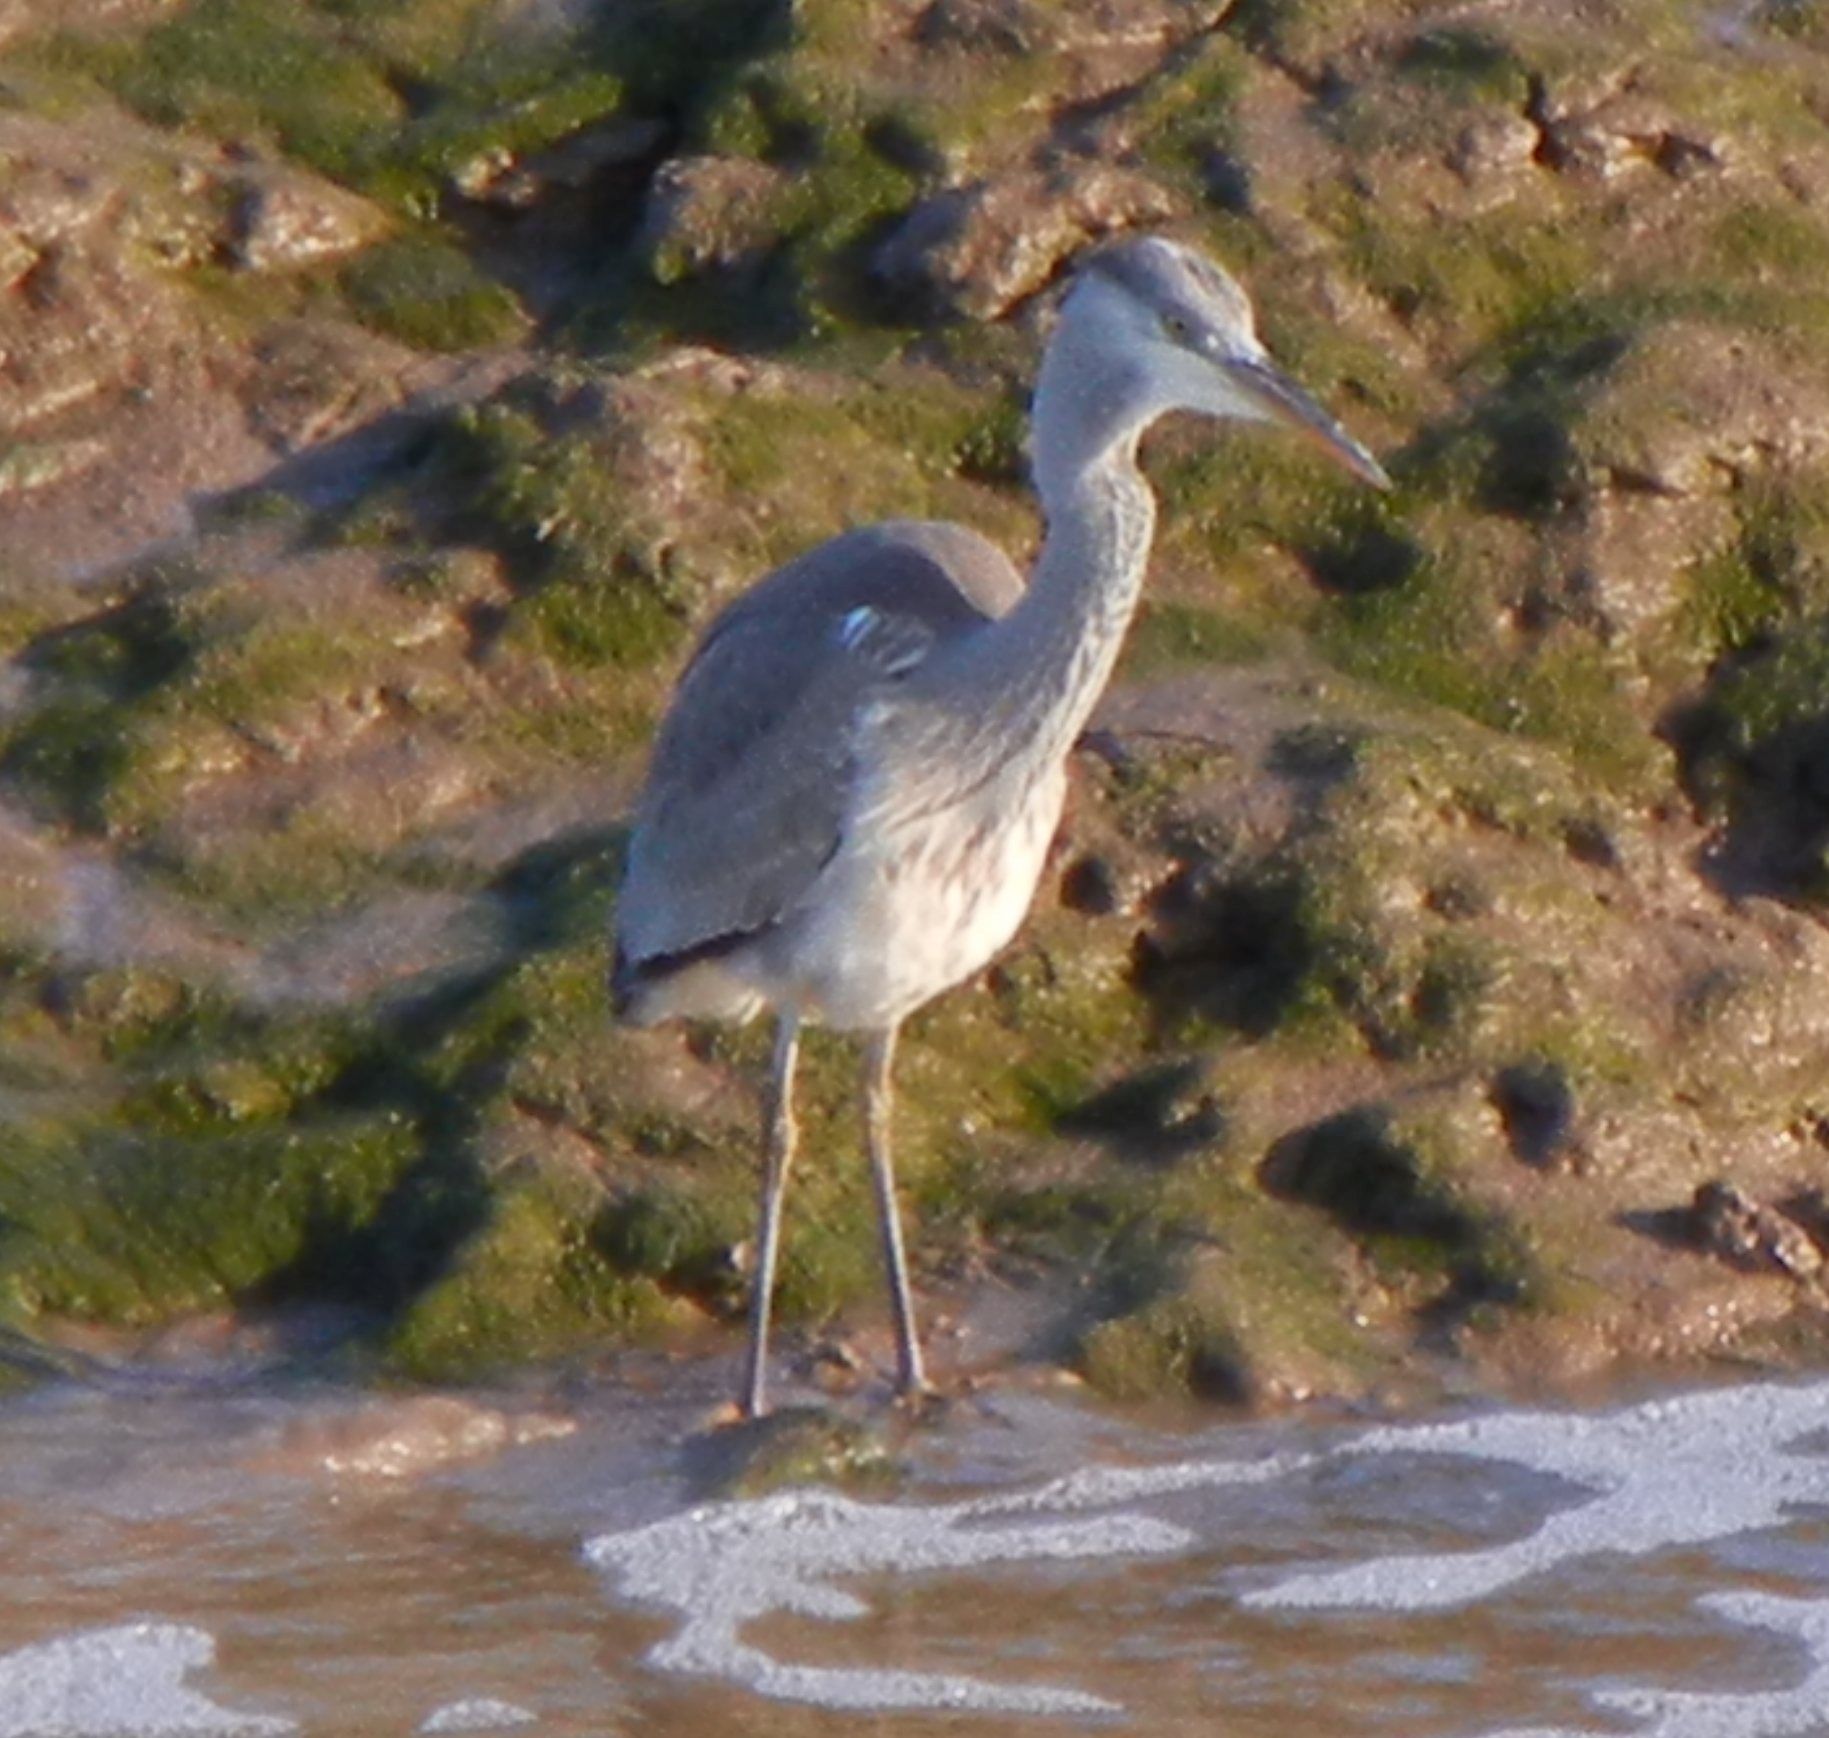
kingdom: Animalia
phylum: Chordata
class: Aves
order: Pelecaniformes
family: Ardeidae
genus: Ardea
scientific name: Ardea cinerea
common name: Grey heron
